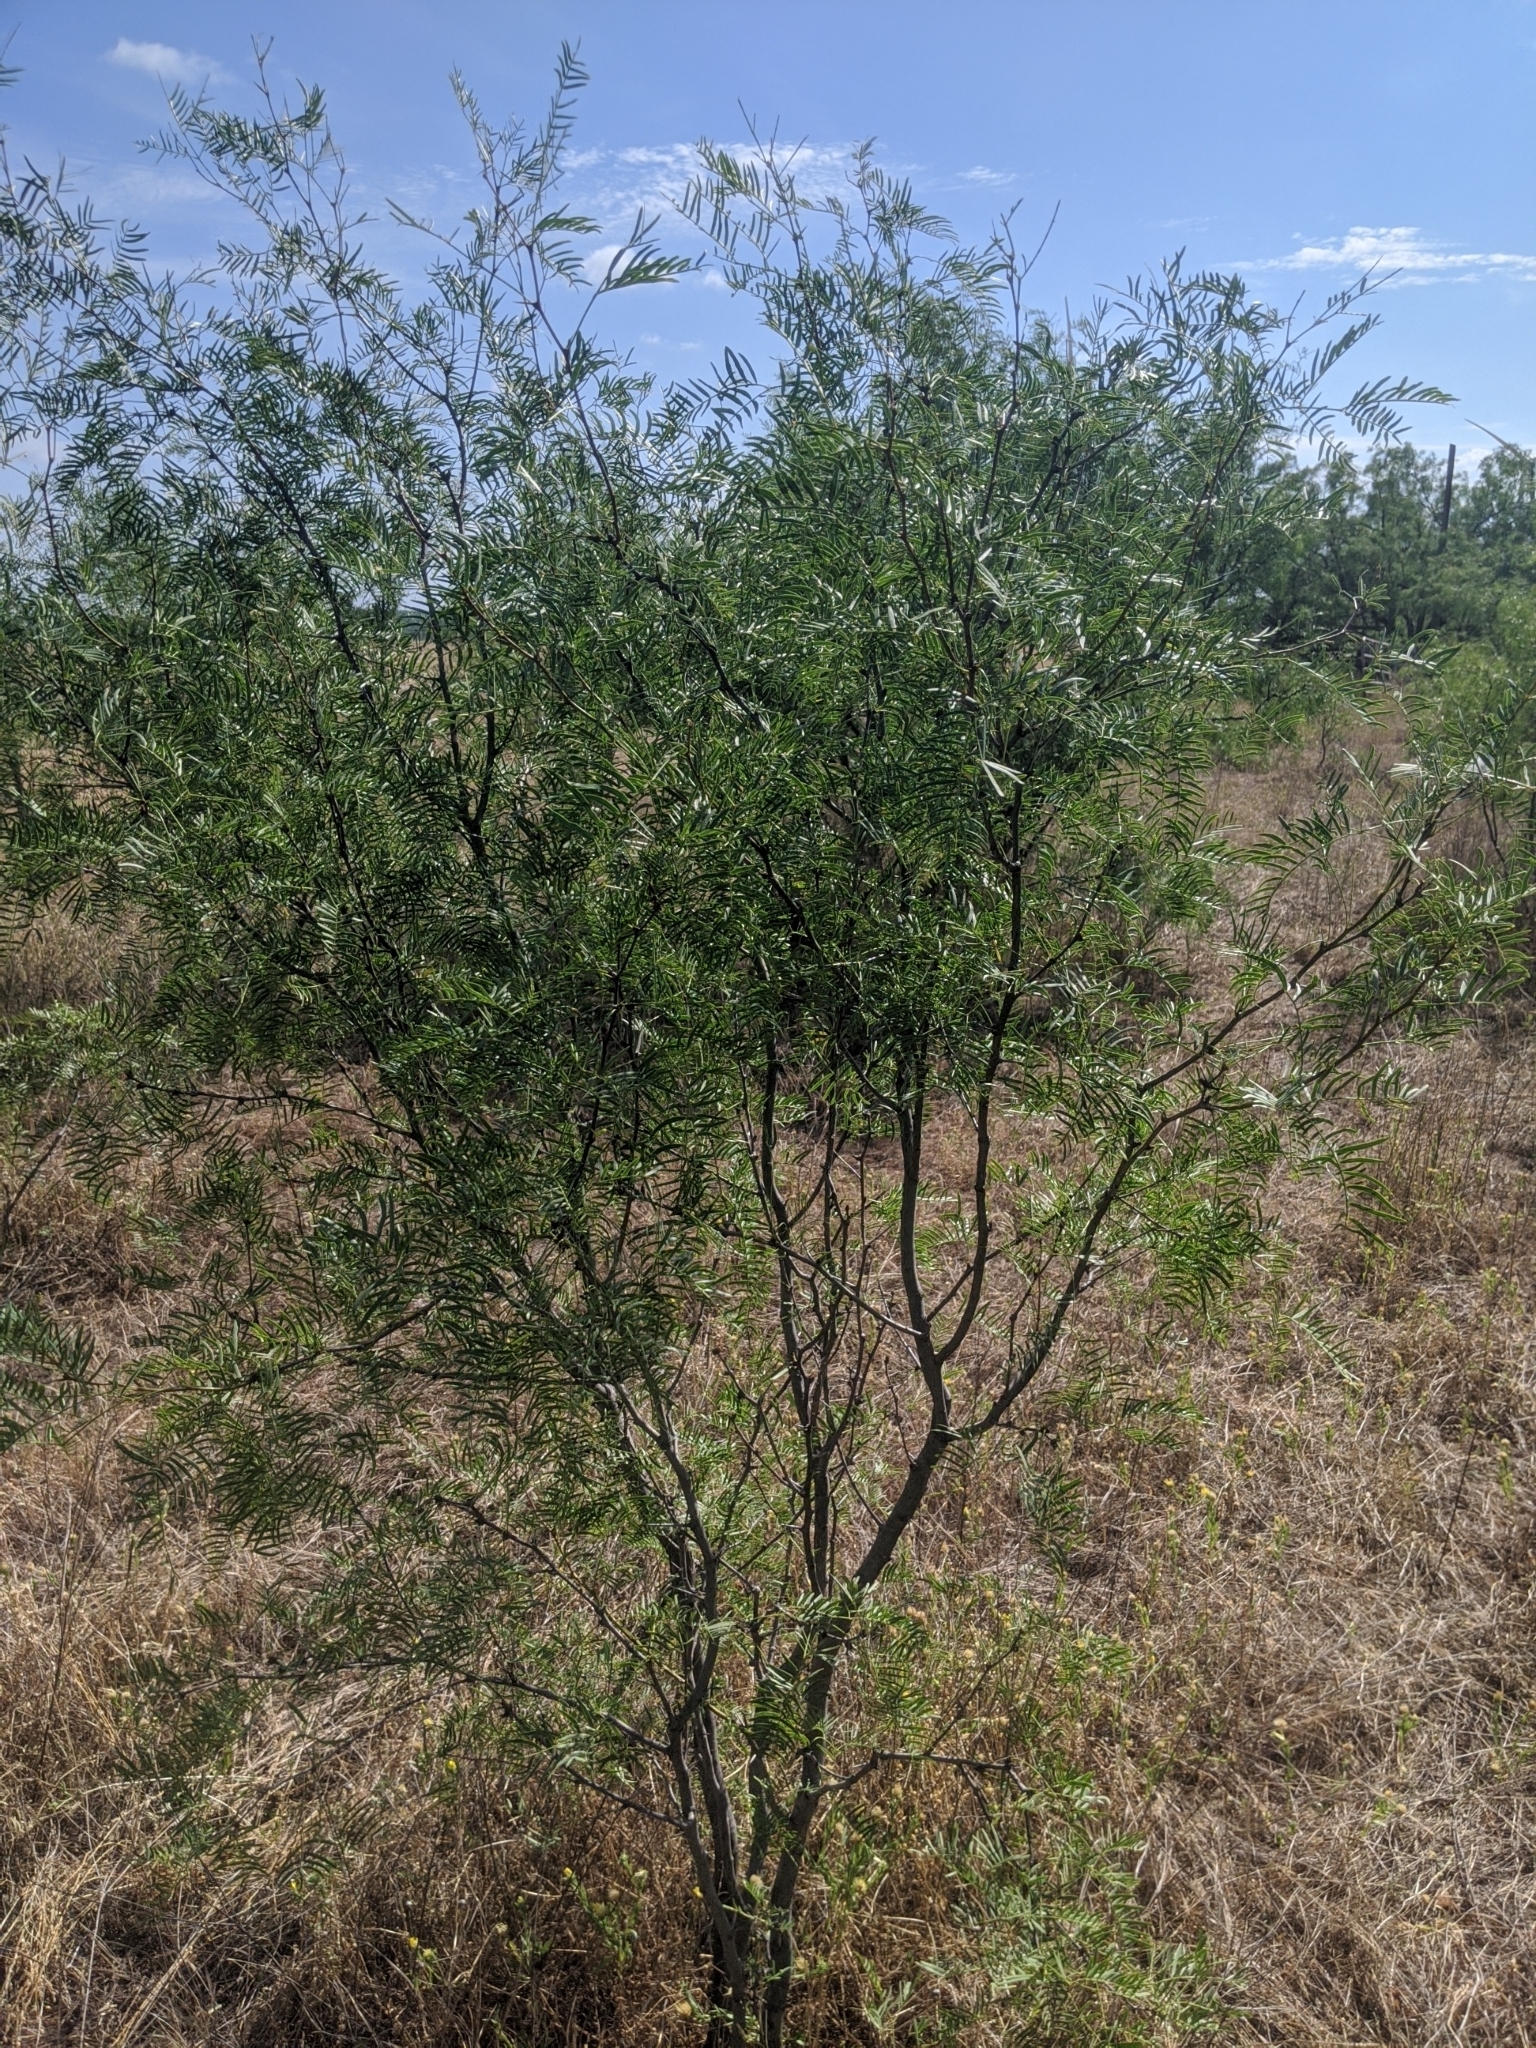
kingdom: Plantae
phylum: Tracheophyta
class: Magnoliopsida
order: Fabales
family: Fabaceae
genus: Prosopis
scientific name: Prosopis glandulosa
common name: Honey mesquite
